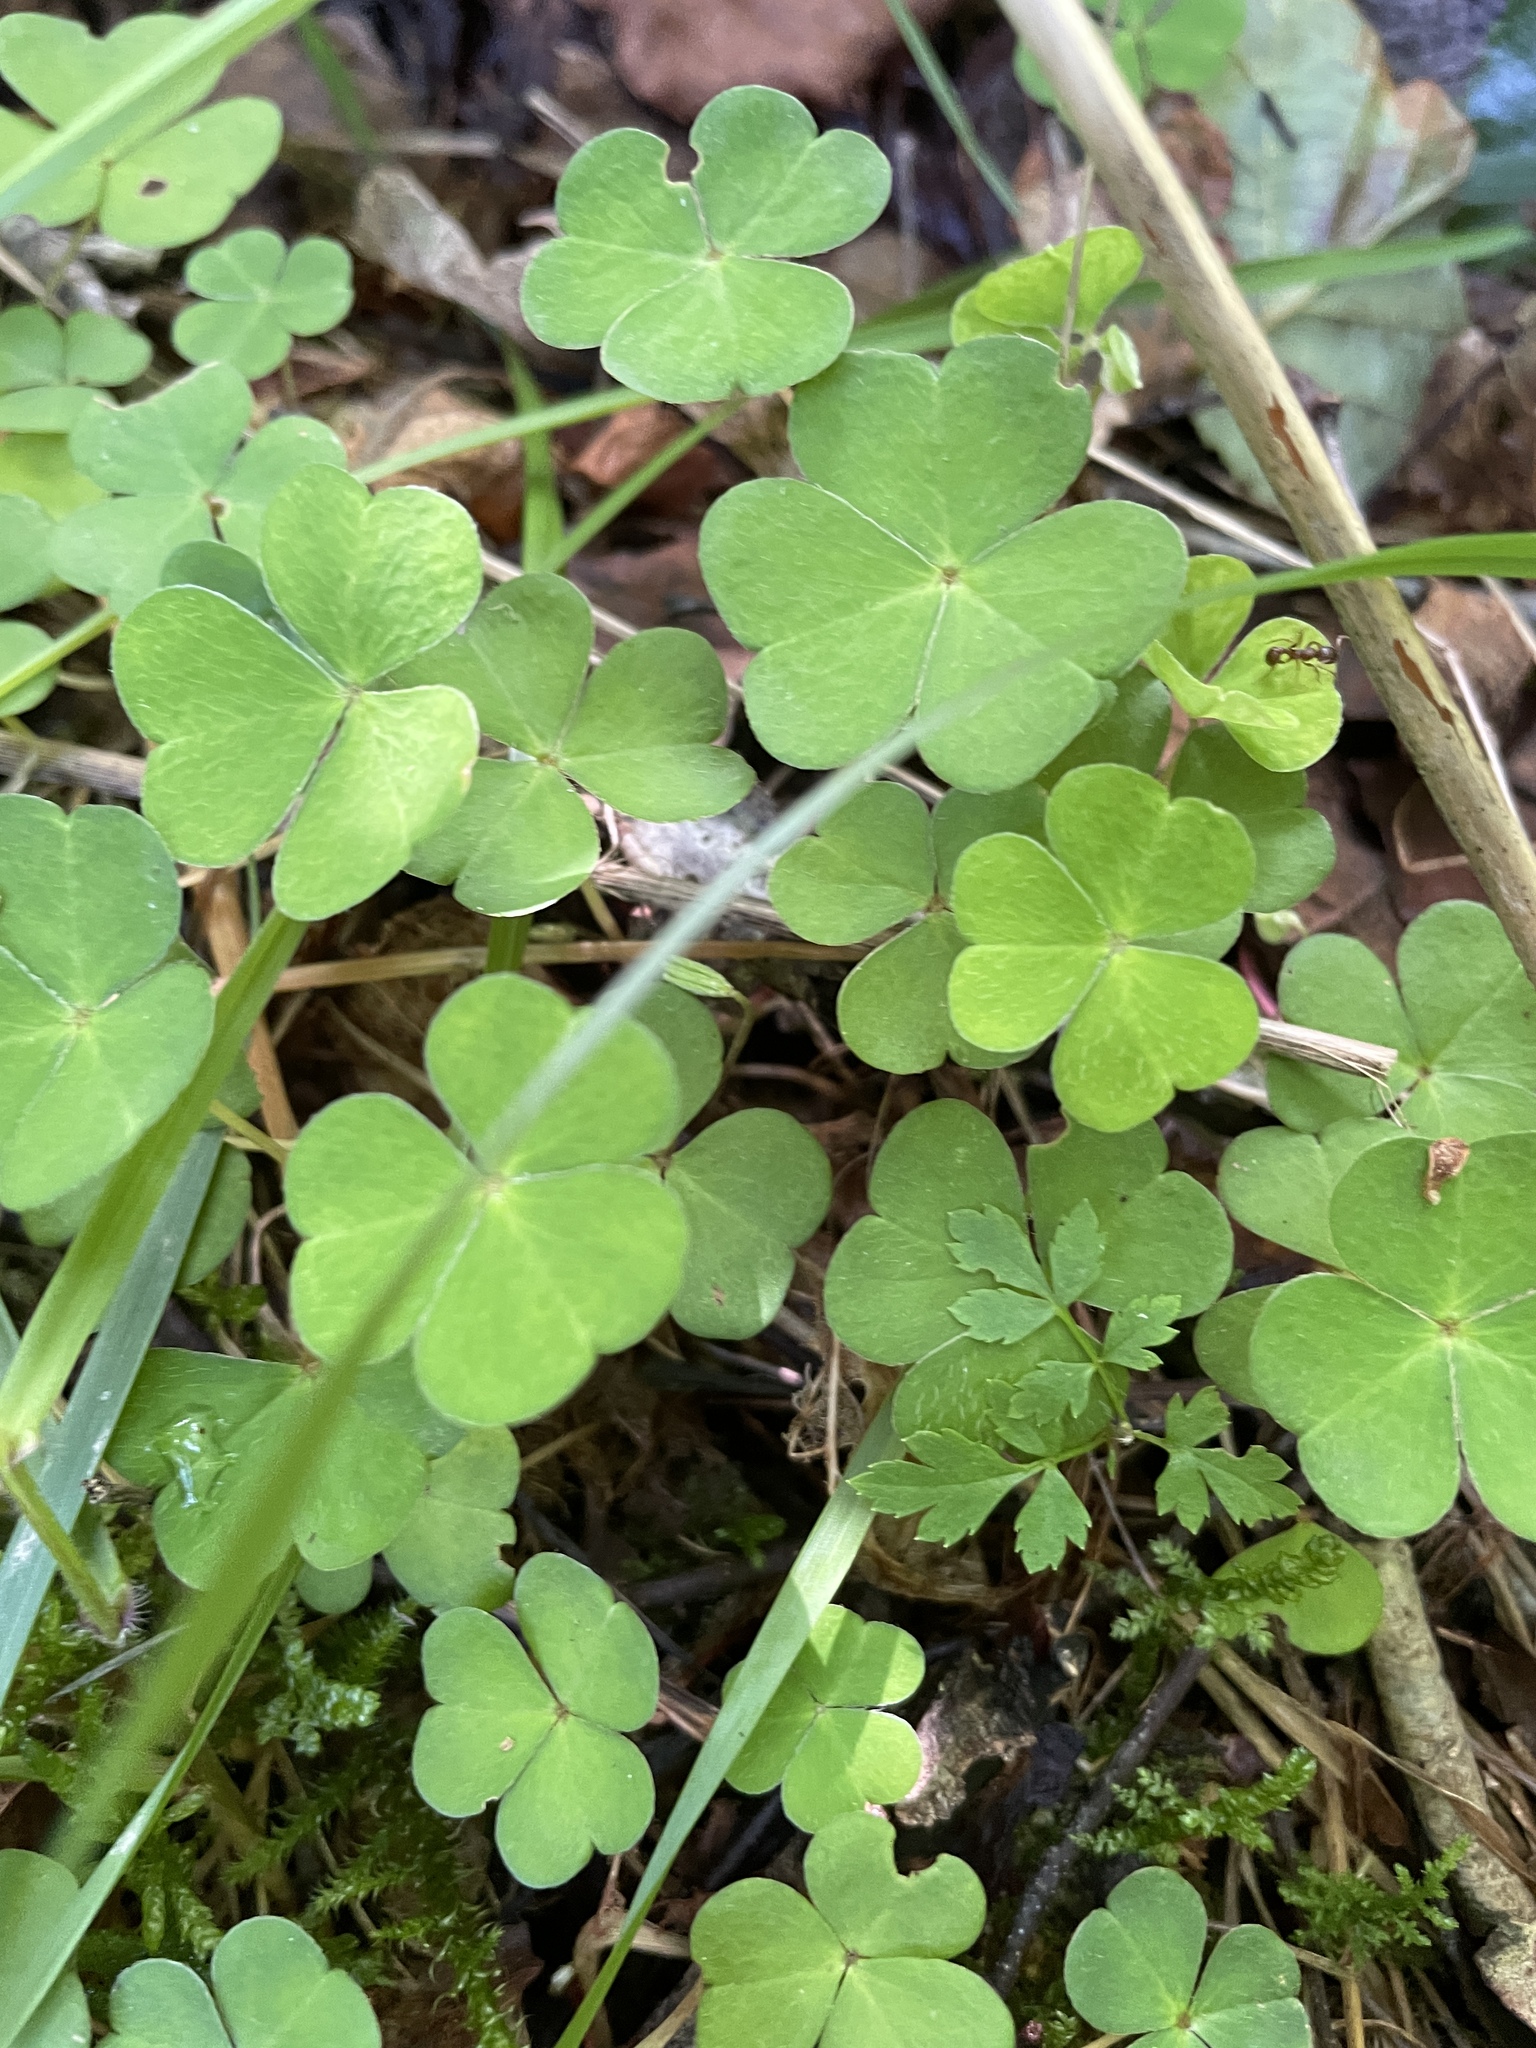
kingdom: Plantae
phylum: Tracheophyta
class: Magnoliopsida
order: Oxalidales
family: Oxalidaceae
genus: Oxalis
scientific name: Oxalis acetosella
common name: Wood-sorrel
